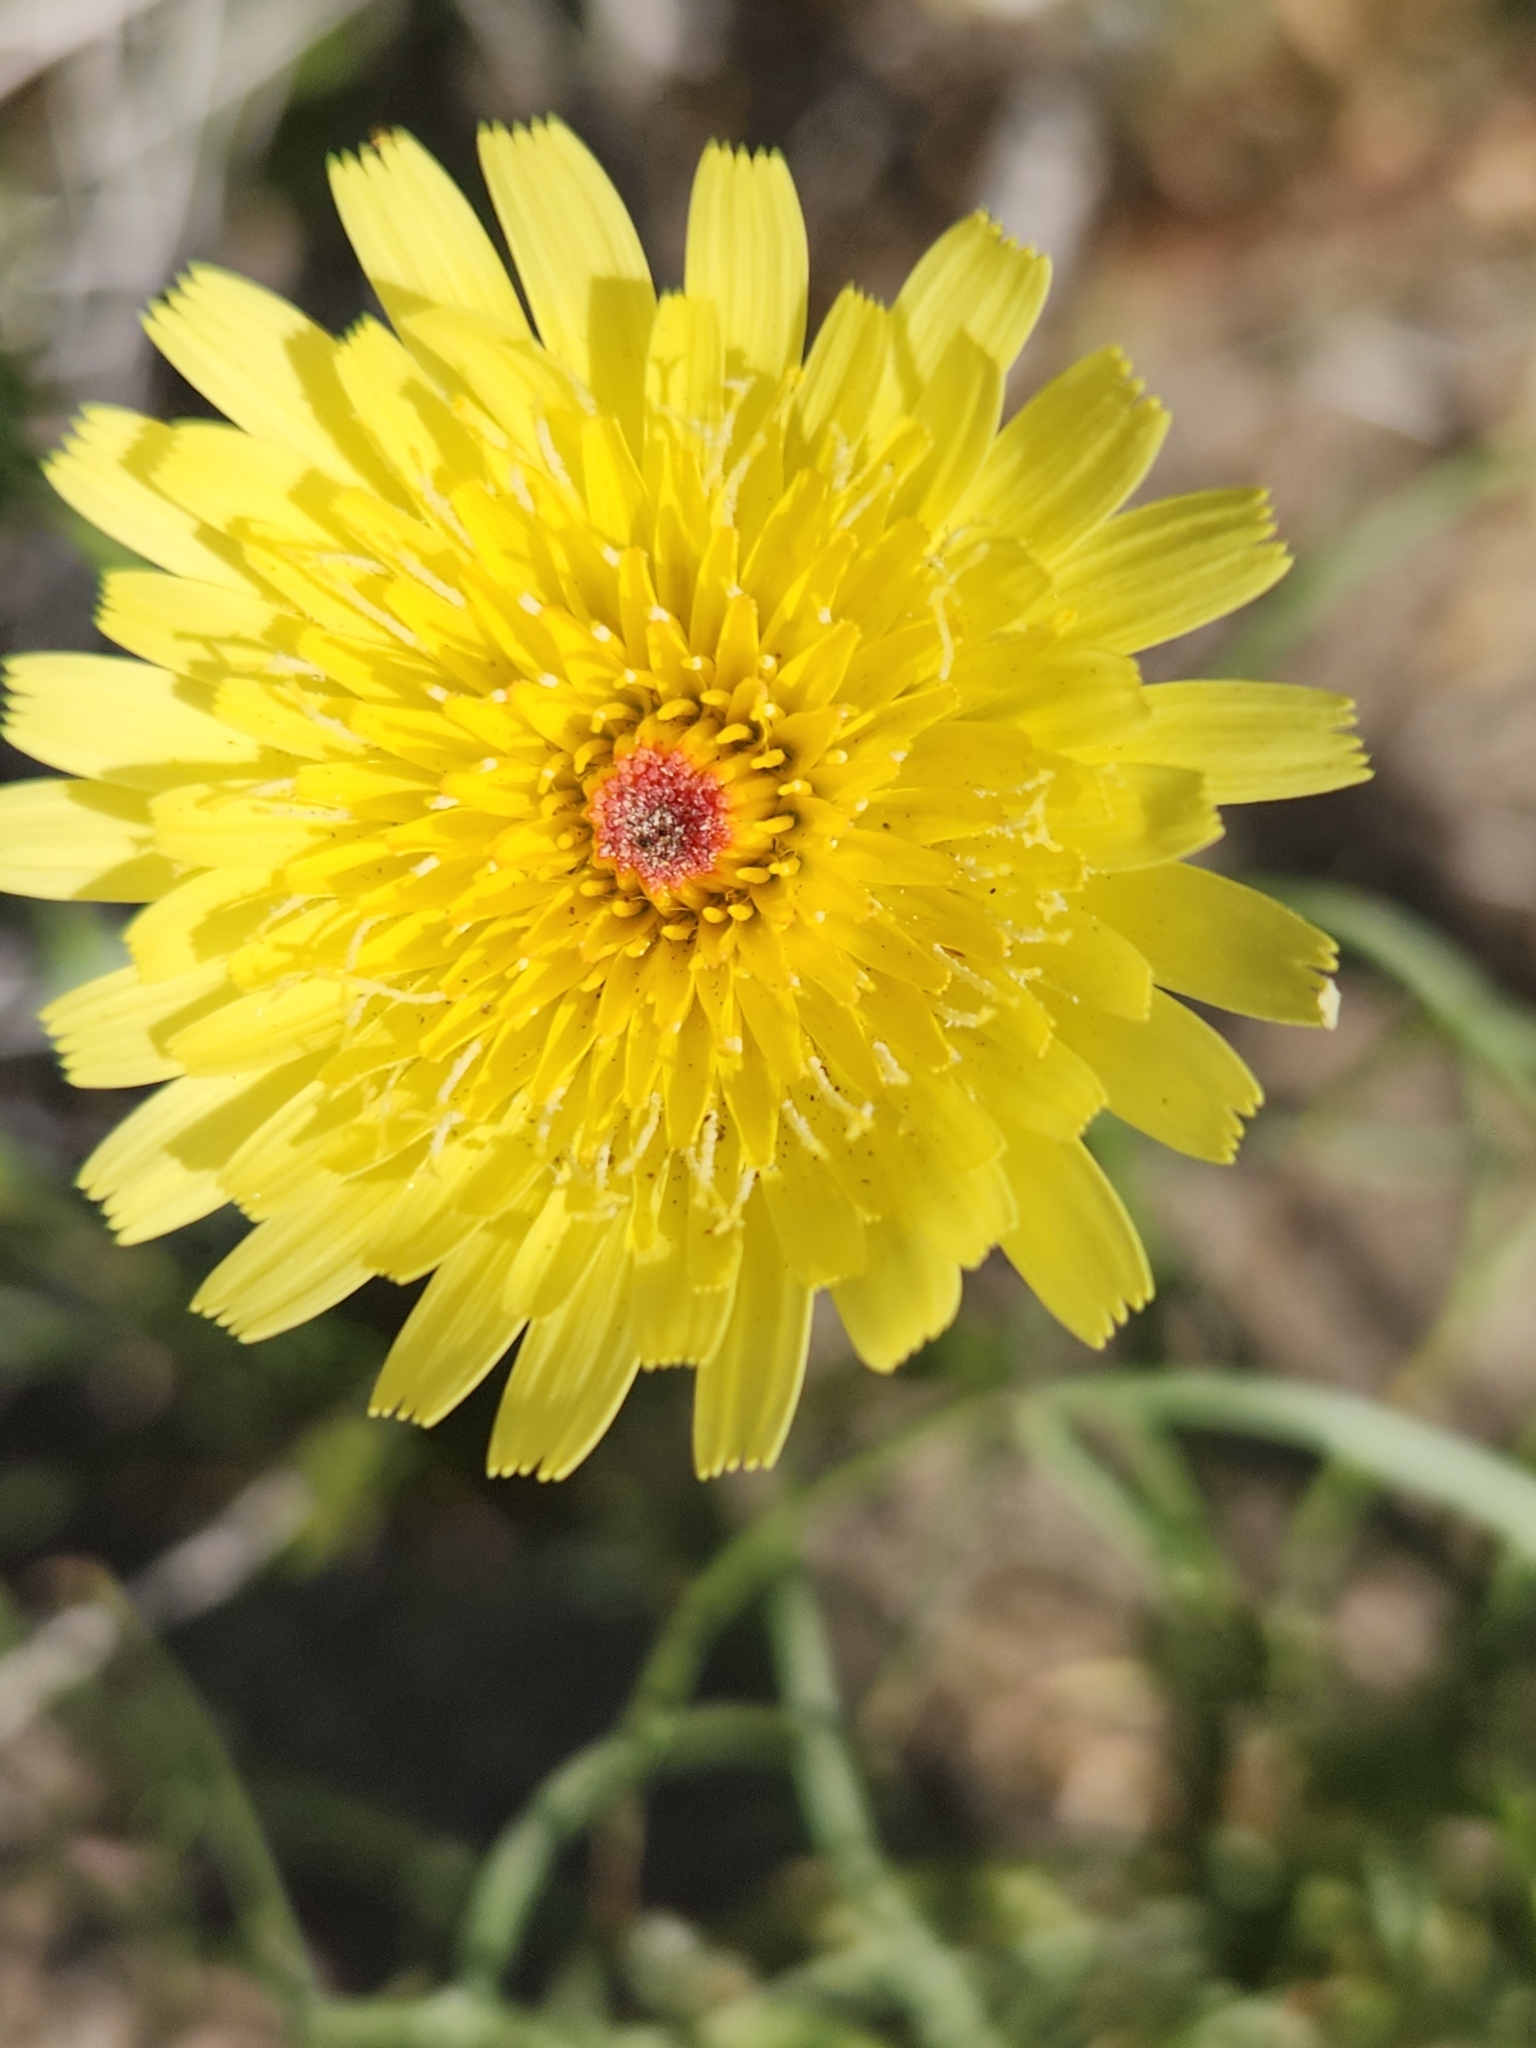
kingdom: Plantae
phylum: Tracheophyta
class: Magnoliopsida
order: Asterales
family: Asteraceae
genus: Malacothrix
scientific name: Malacothrix glabrata
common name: Smooth desert-dandelion
